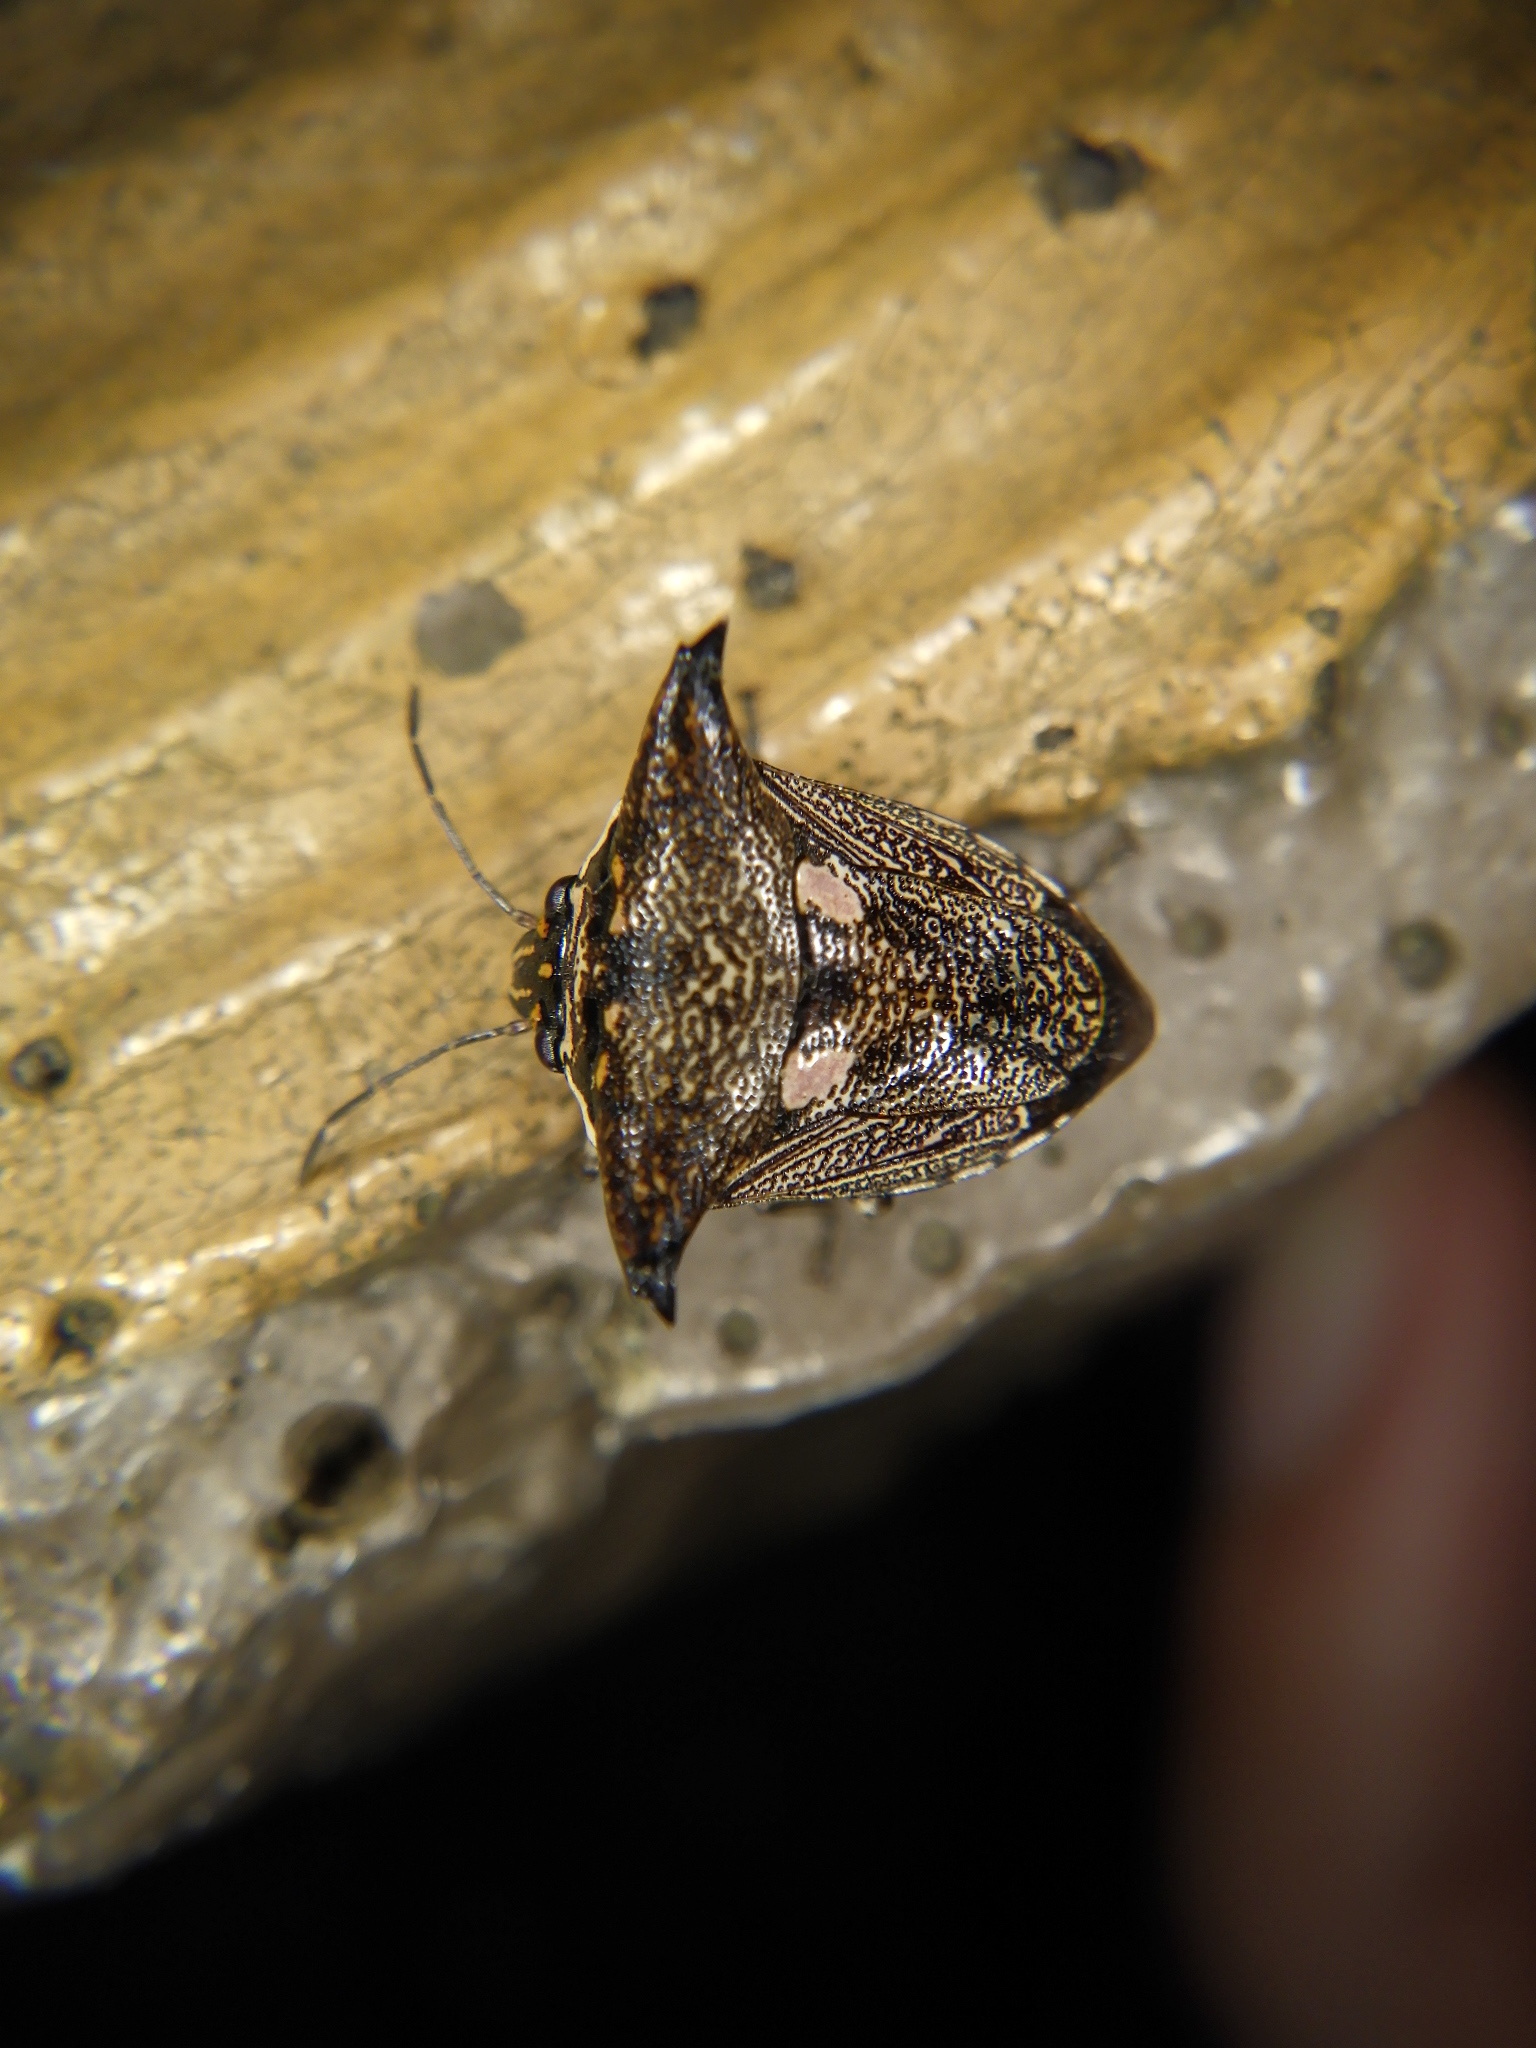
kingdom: Animalia
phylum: Arthropoda
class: Insecta
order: Hemiptera
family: Pentatomidae
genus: Alcimocoris
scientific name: Alcimocoris japonersis
